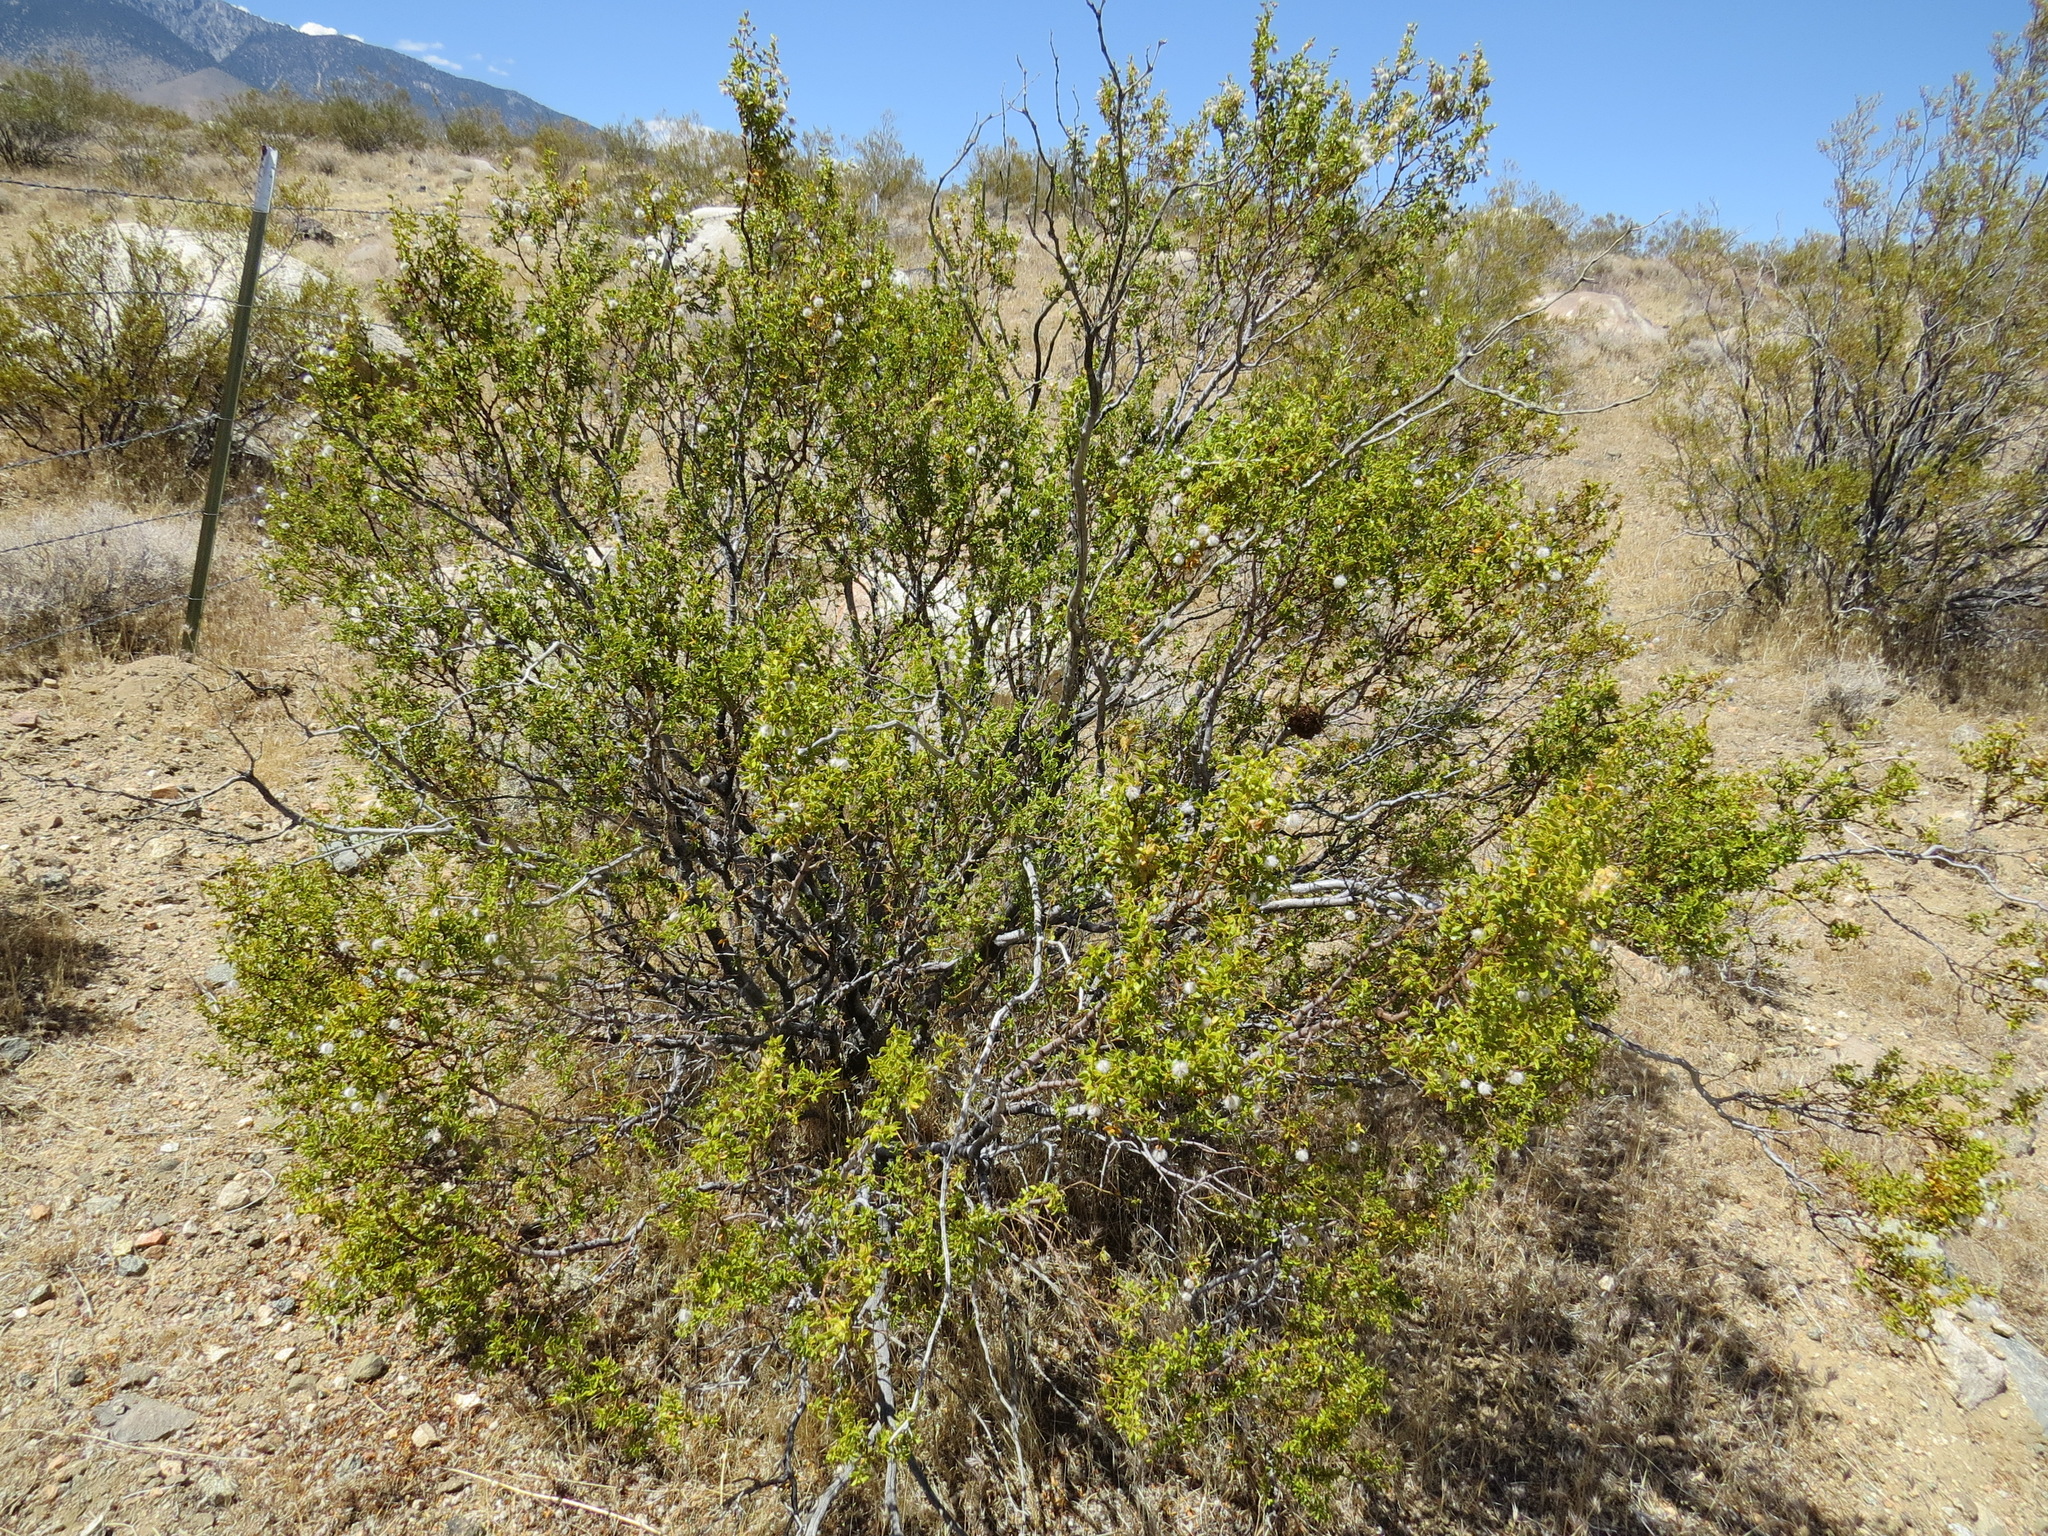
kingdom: Plantae
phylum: Tracheophyta
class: Magnoliopsida
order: Zygophyllales
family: Zygophyllaceae
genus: Larrea
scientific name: Larrea tridentata
